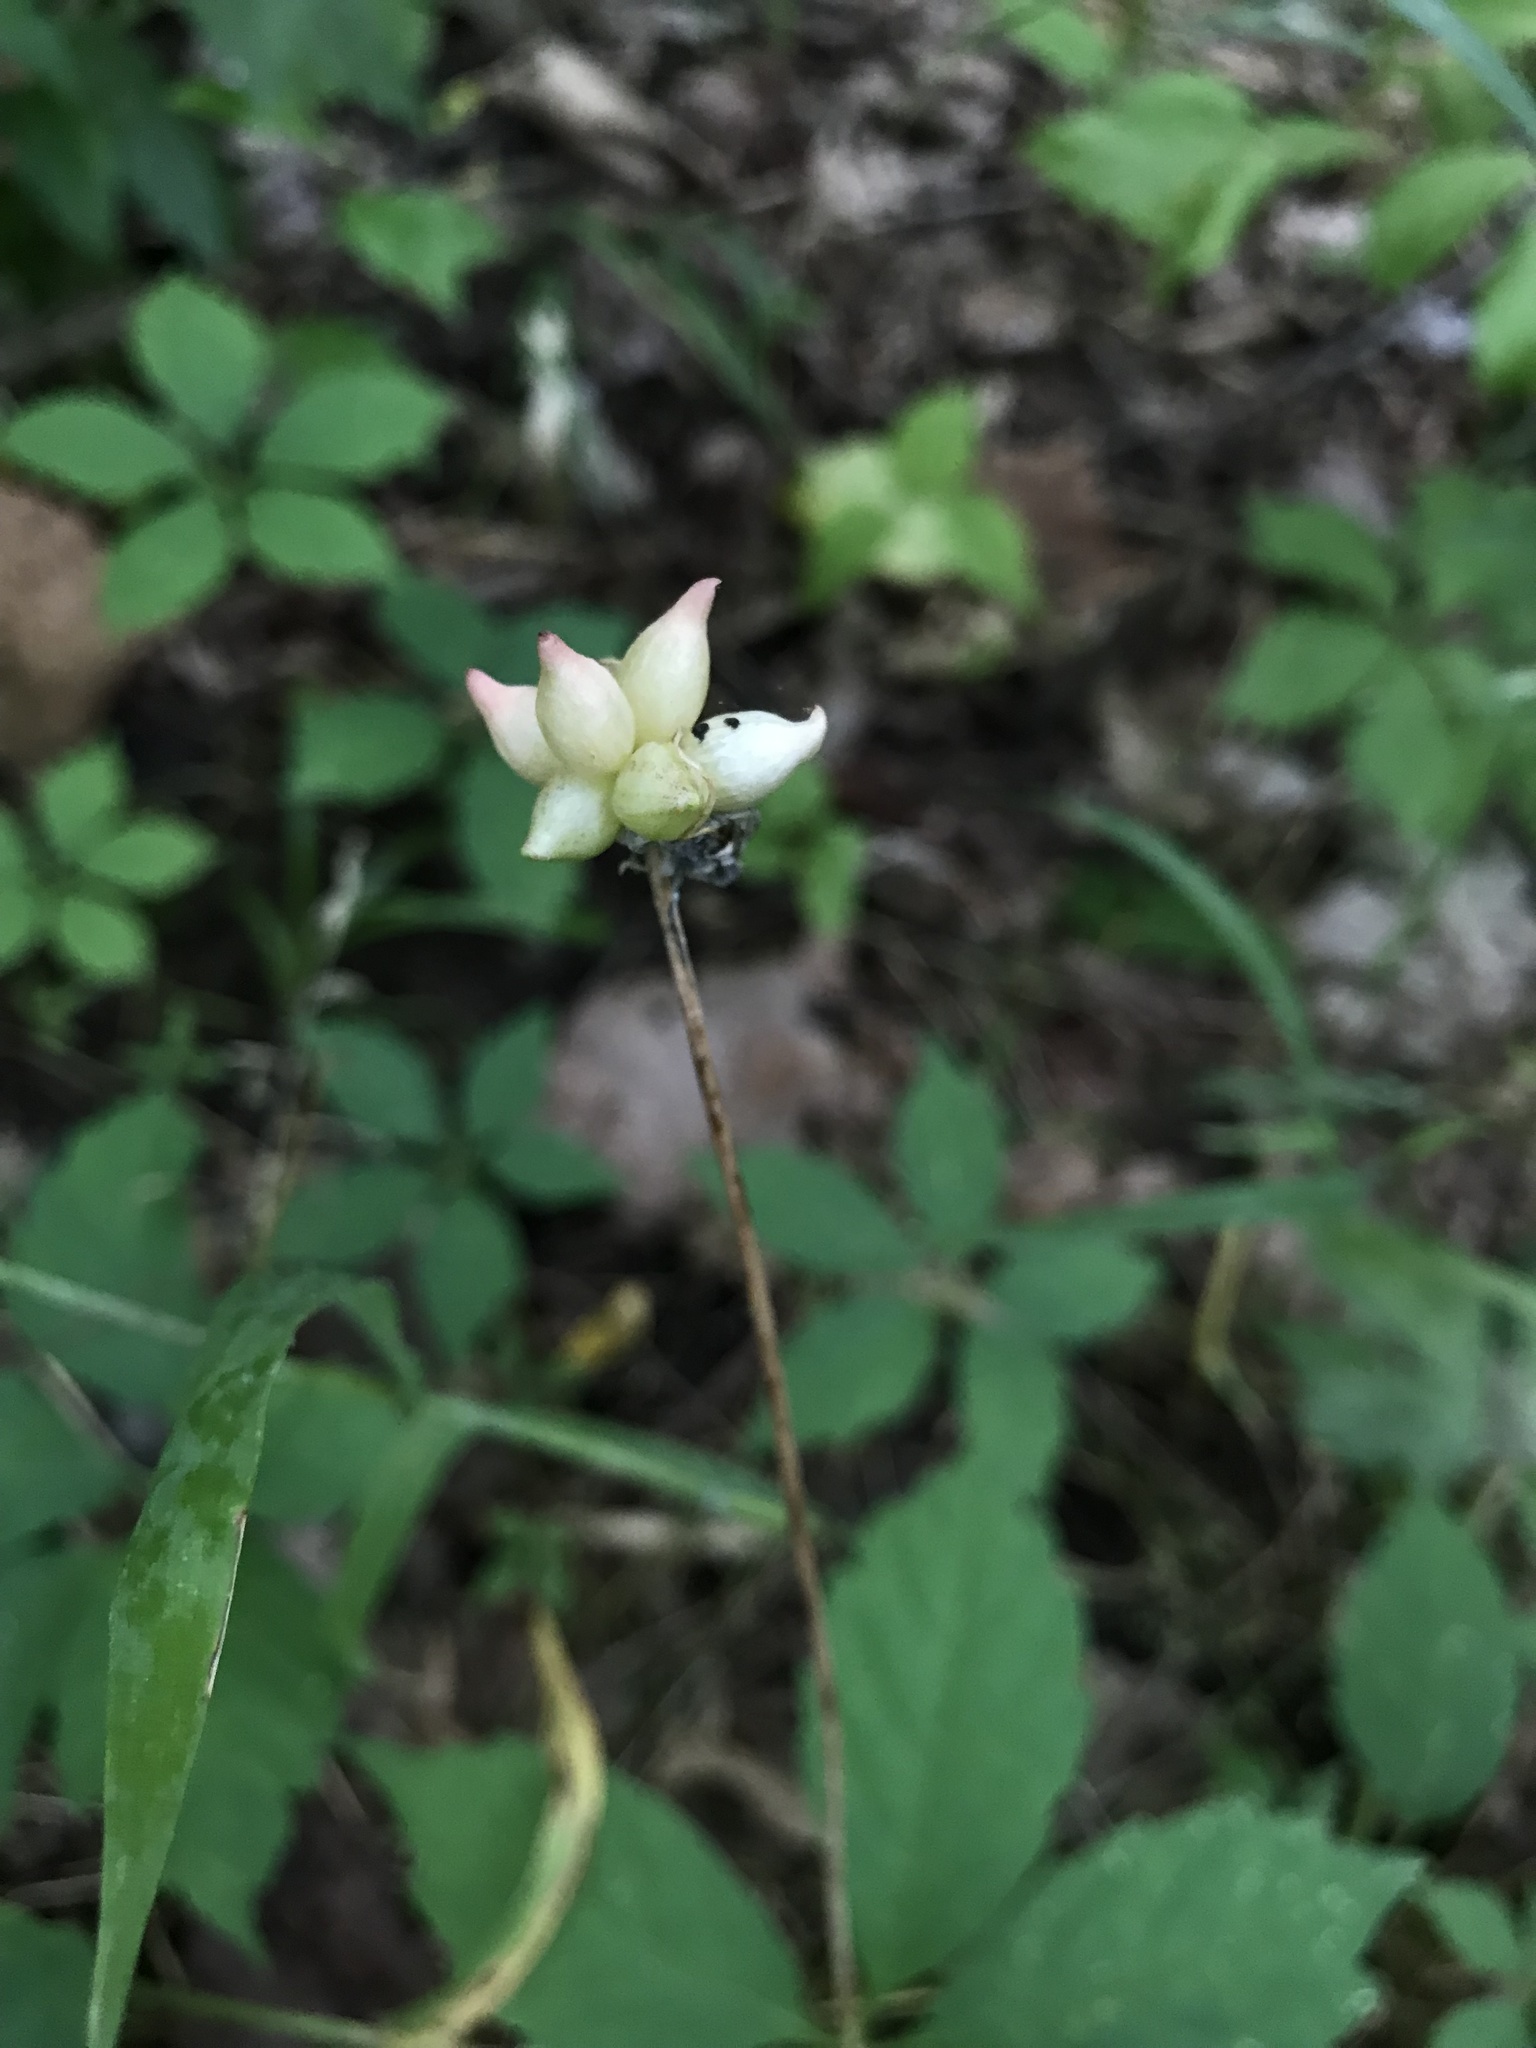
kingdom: Plantae
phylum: Tracheophyta
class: Liliopsida
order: Asparagales
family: Amaryllidaceae
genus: Allium
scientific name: Allium canadense
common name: Meadow garlic
